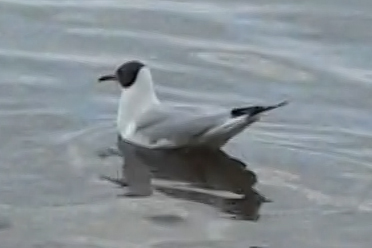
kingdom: Animalia
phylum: Chordata
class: Aves
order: Charadriiformes
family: Laridae
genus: Chroicocephalus
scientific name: Chroicocephalus ridibundus
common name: Black-headed gull
